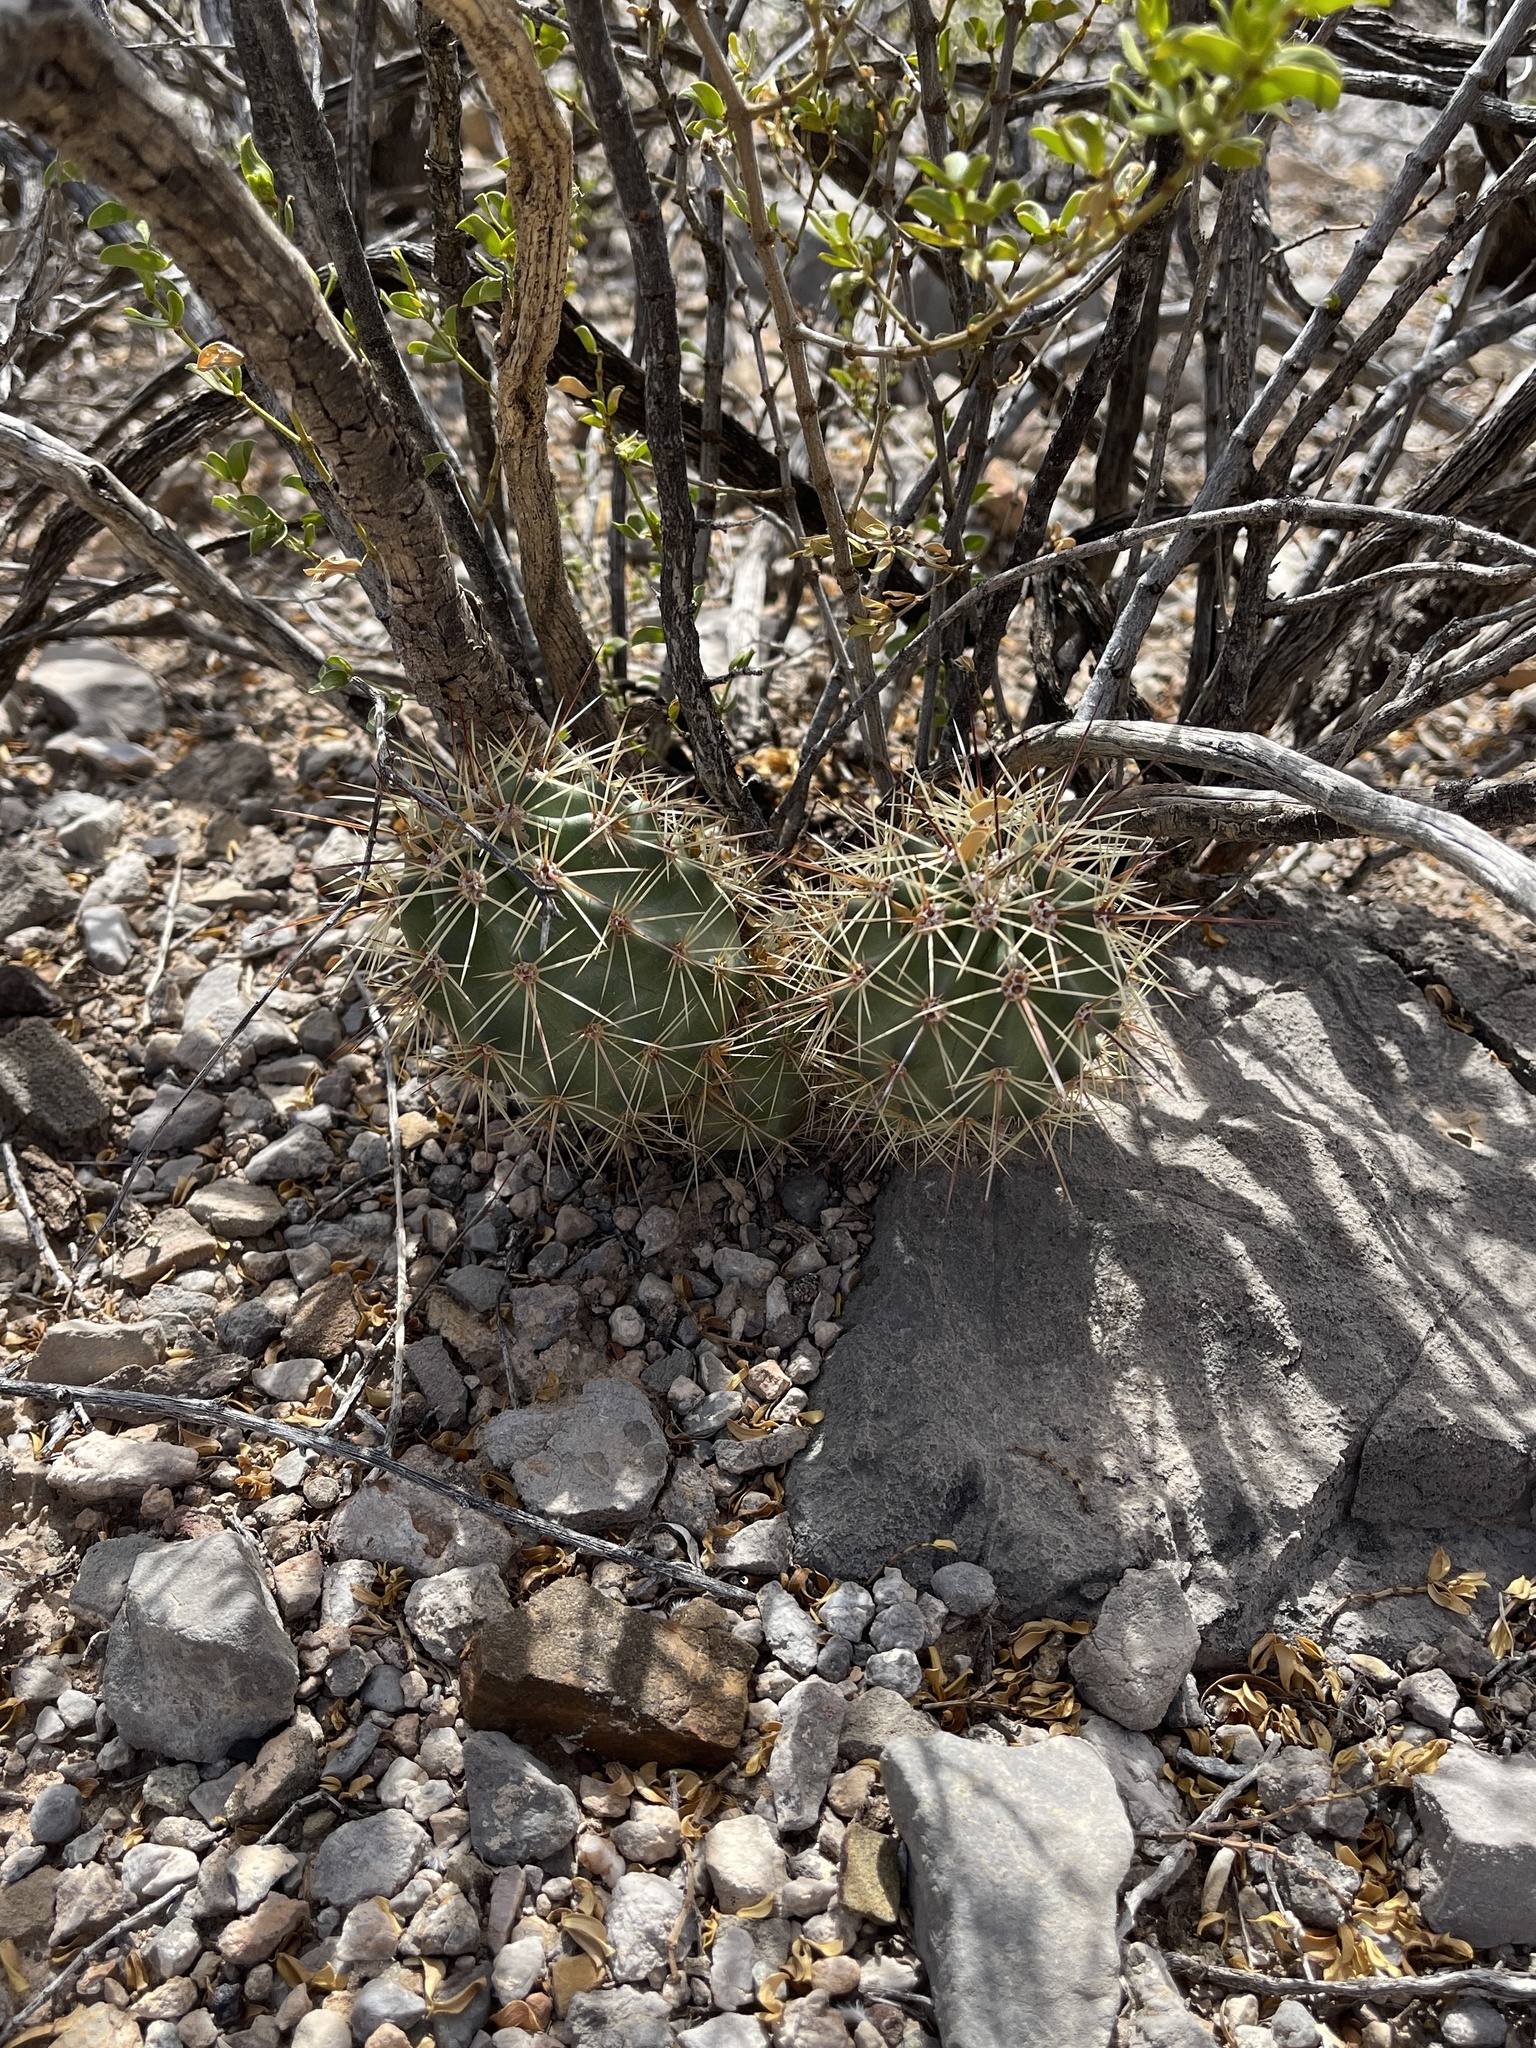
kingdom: Plantae
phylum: Tracheophyta
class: Magnoliopsida
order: Caryophyllales
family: Cactaceae
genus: Echinocereus
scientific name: Echinocereus coccineus
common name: Scarlet hedgehog cactus
